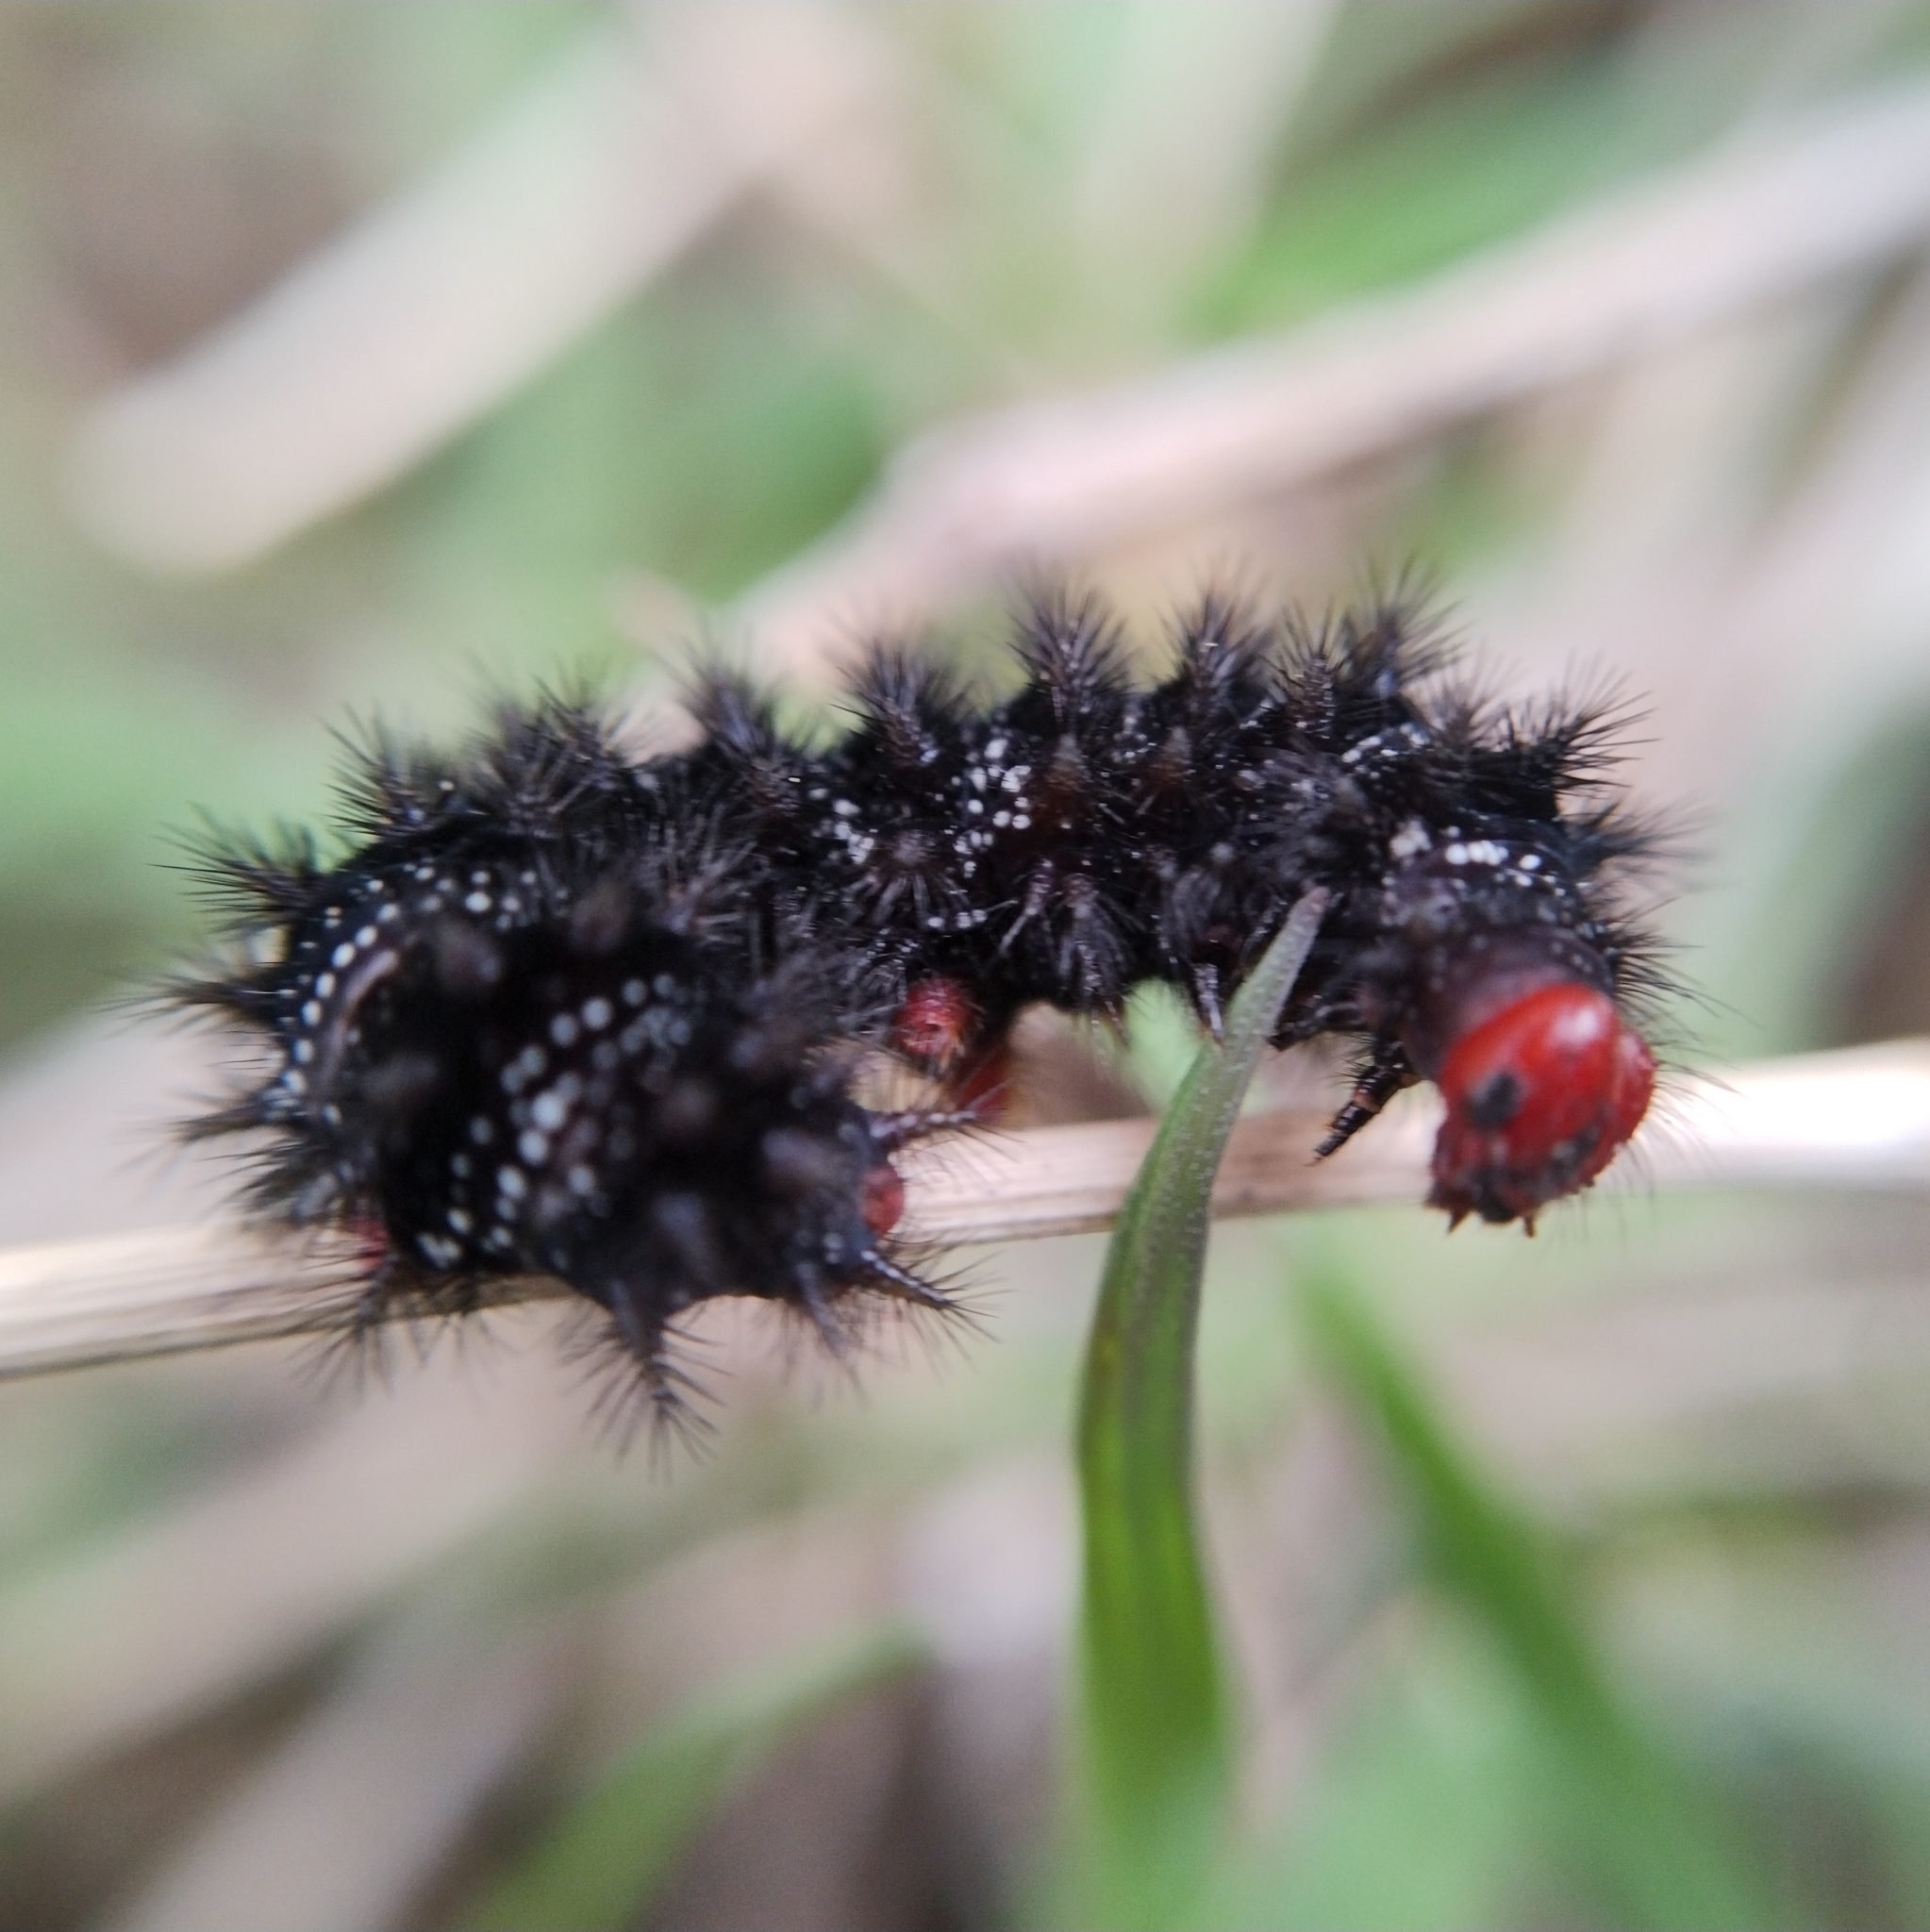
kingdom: Animalia
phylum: Arthropoda
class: Insecta
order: Lepidoptera
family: Nymphalidae
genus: Melitaea
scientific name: Melitaea cinxia
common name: Glanville fritillary
